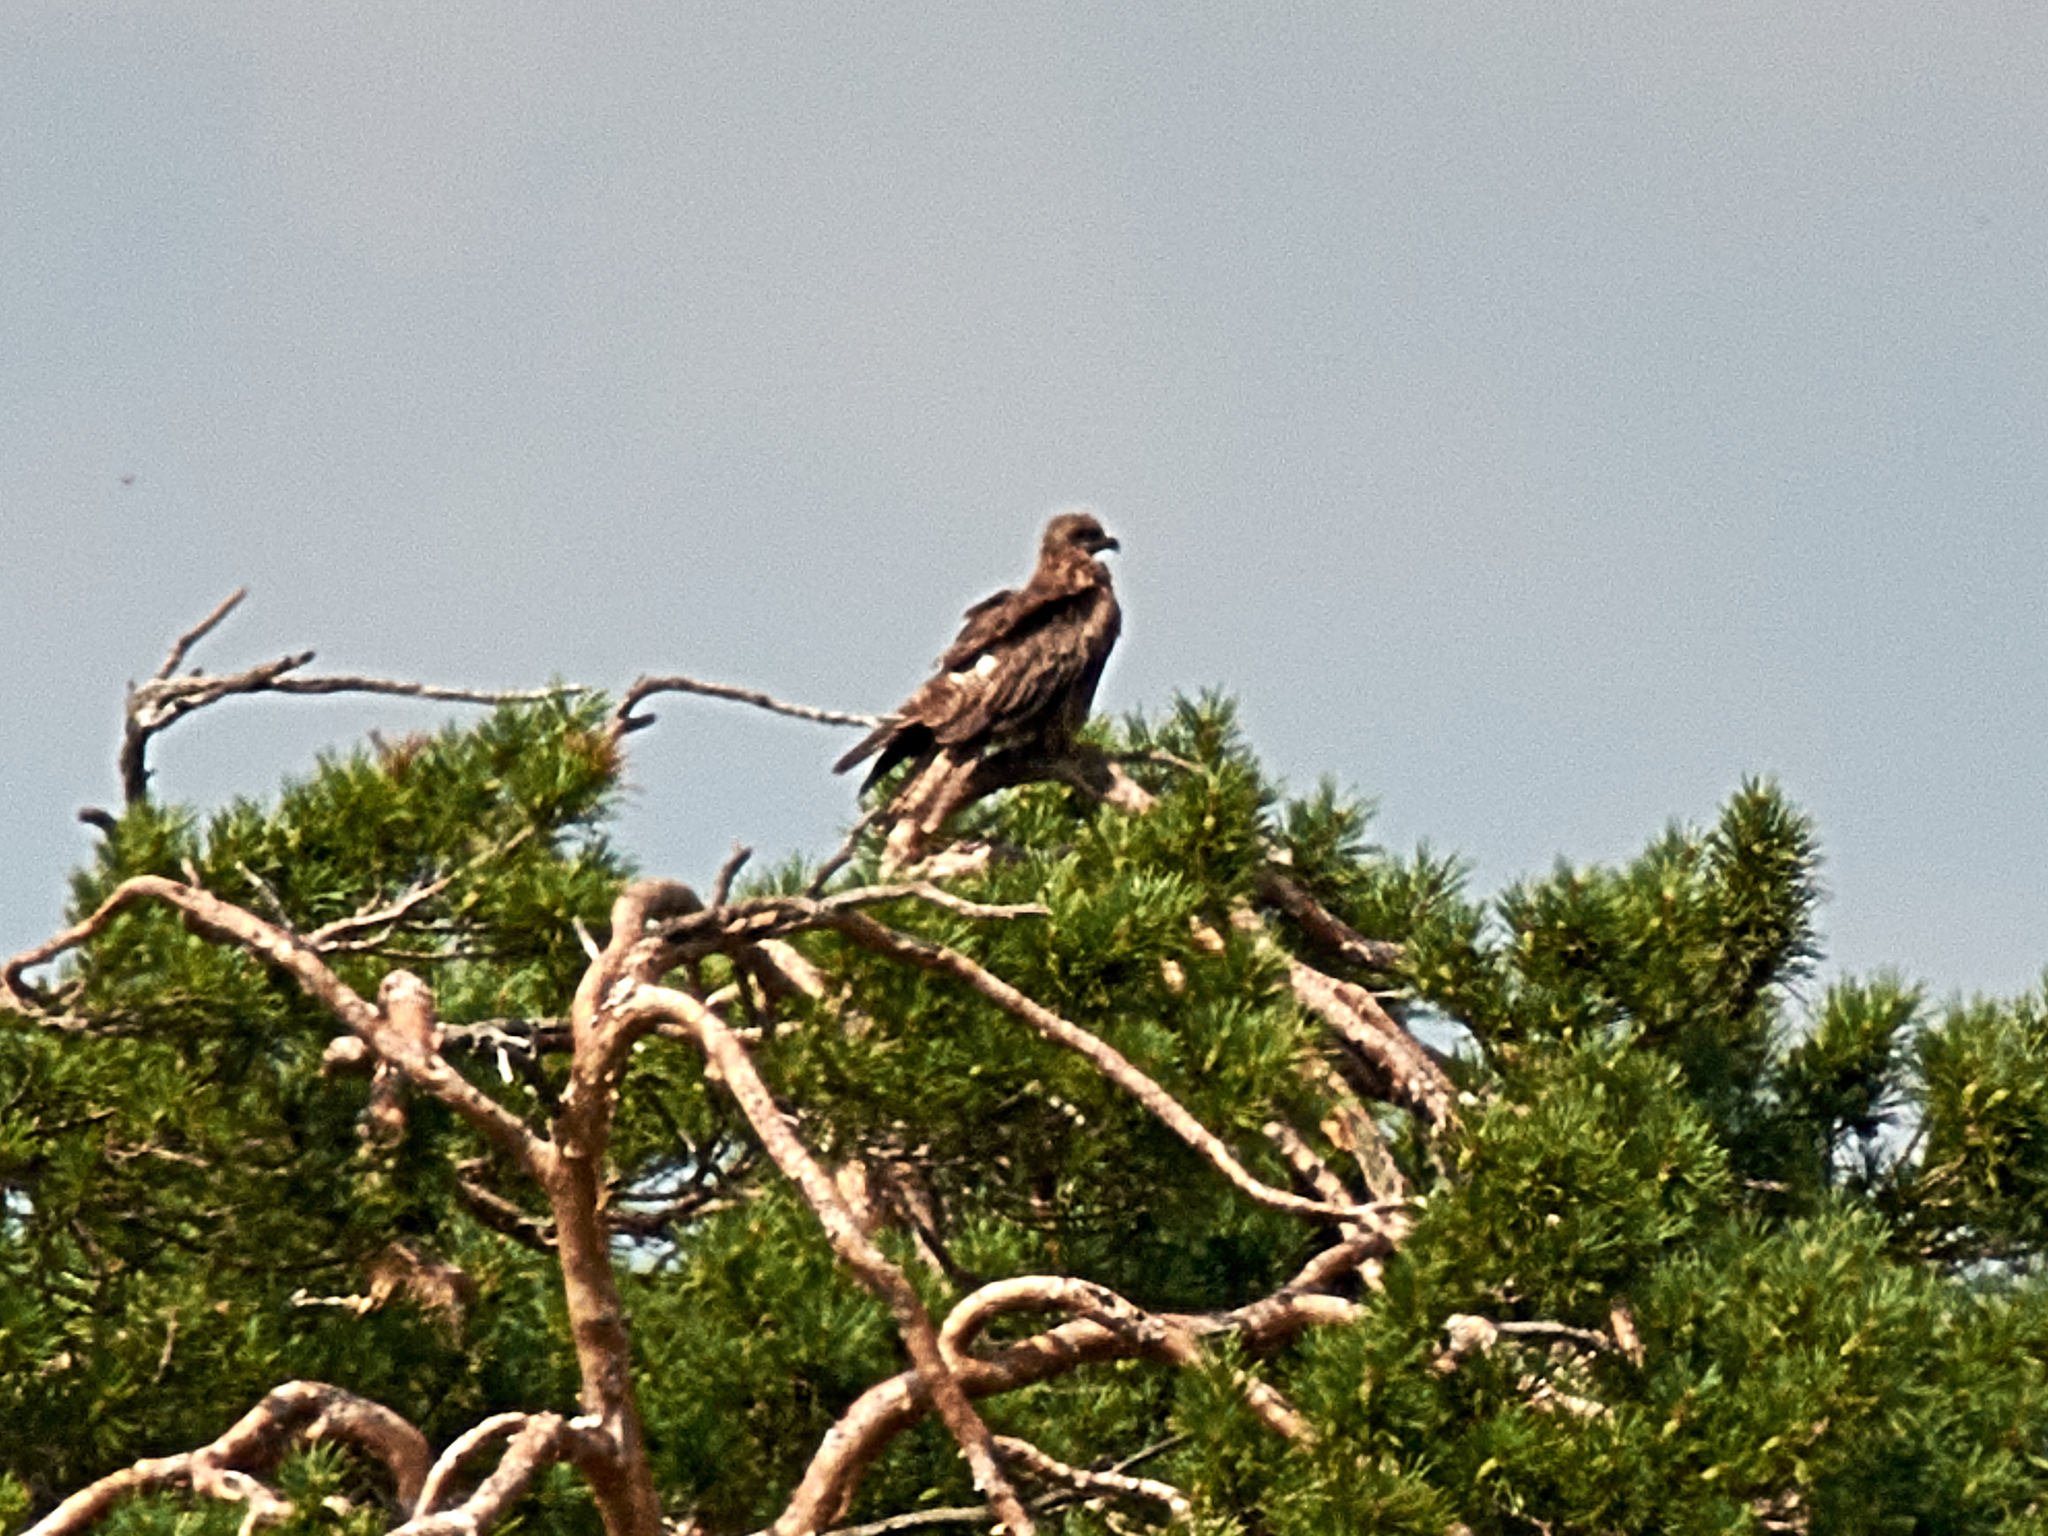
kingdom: Animalia
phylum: Chordata
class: Aves
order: Accipitriformes
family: Accipitridae
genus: Milvus
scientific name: Milvus migrans
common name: Black kite
